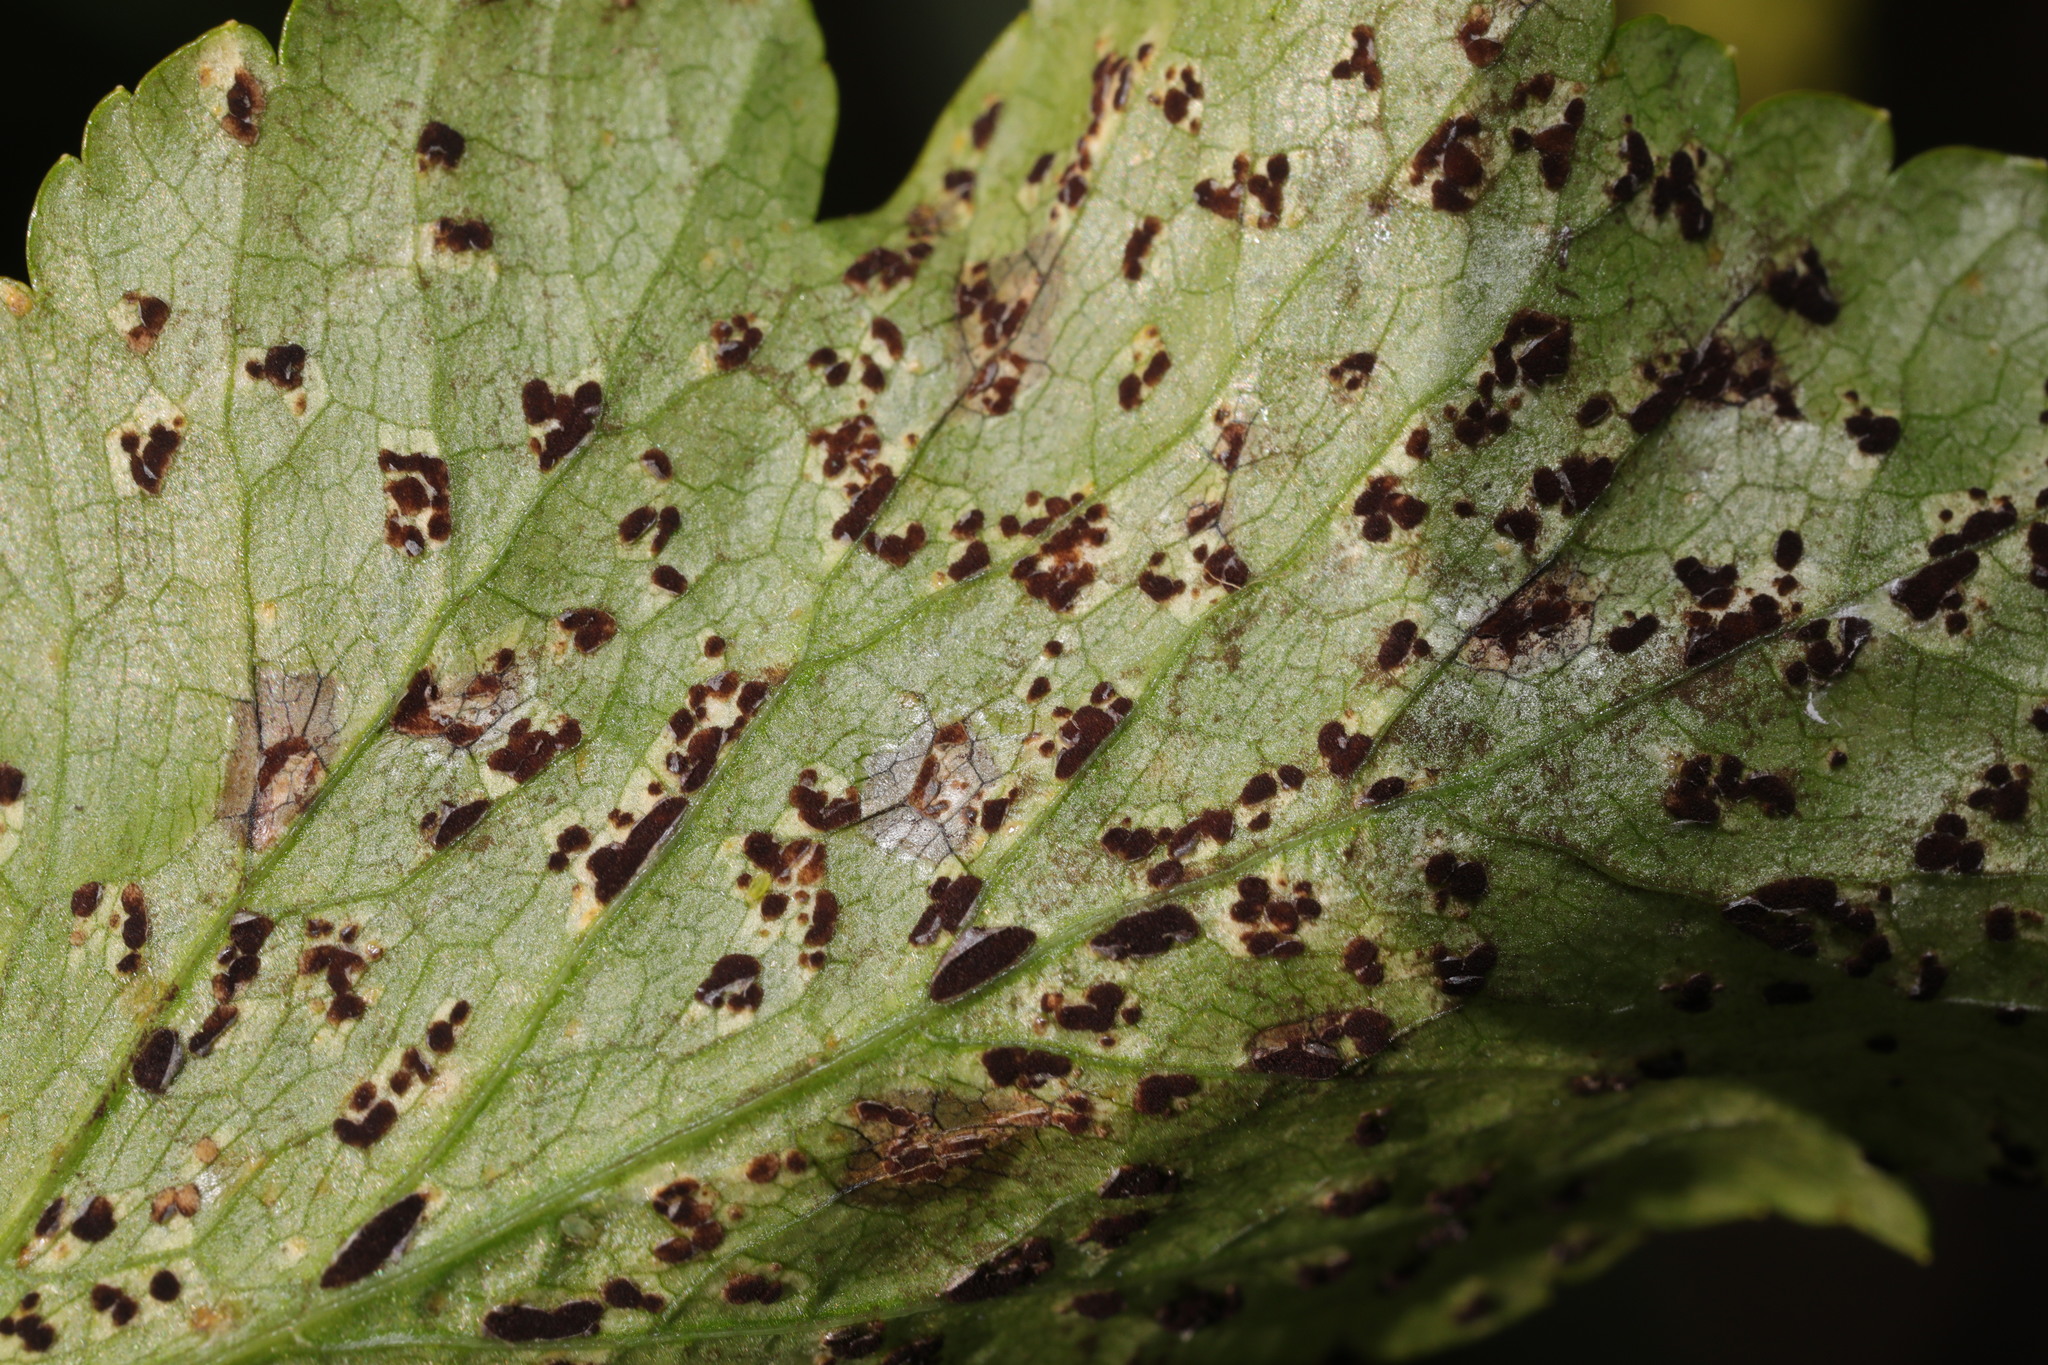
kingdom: Fungi
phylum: Basidiomycota
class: Pucciniomycetes
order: Pucciniales
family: Pucciniaceae
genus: Puccinia
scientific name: Puccinia smyrnii
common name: Alexanders rust
